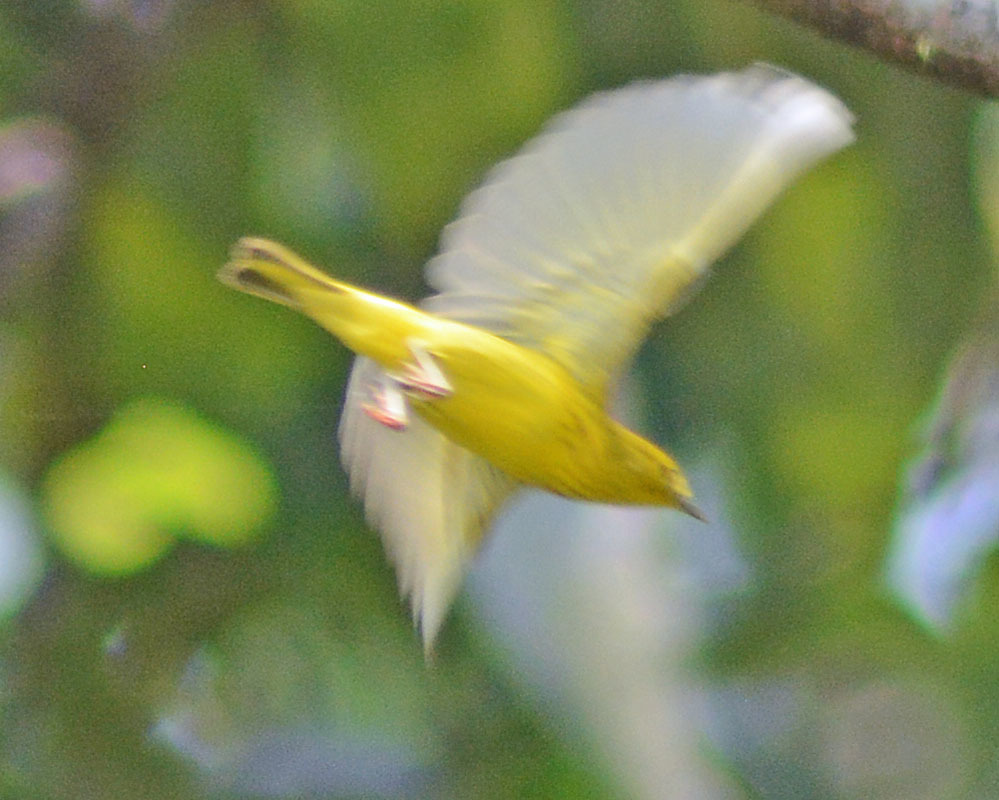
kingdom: Animalia
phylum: Chordata
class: Aves
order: Passeriformes
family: Parulidae
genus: Setophaga
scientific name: Setophaga petechia
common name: Yellow warbler
